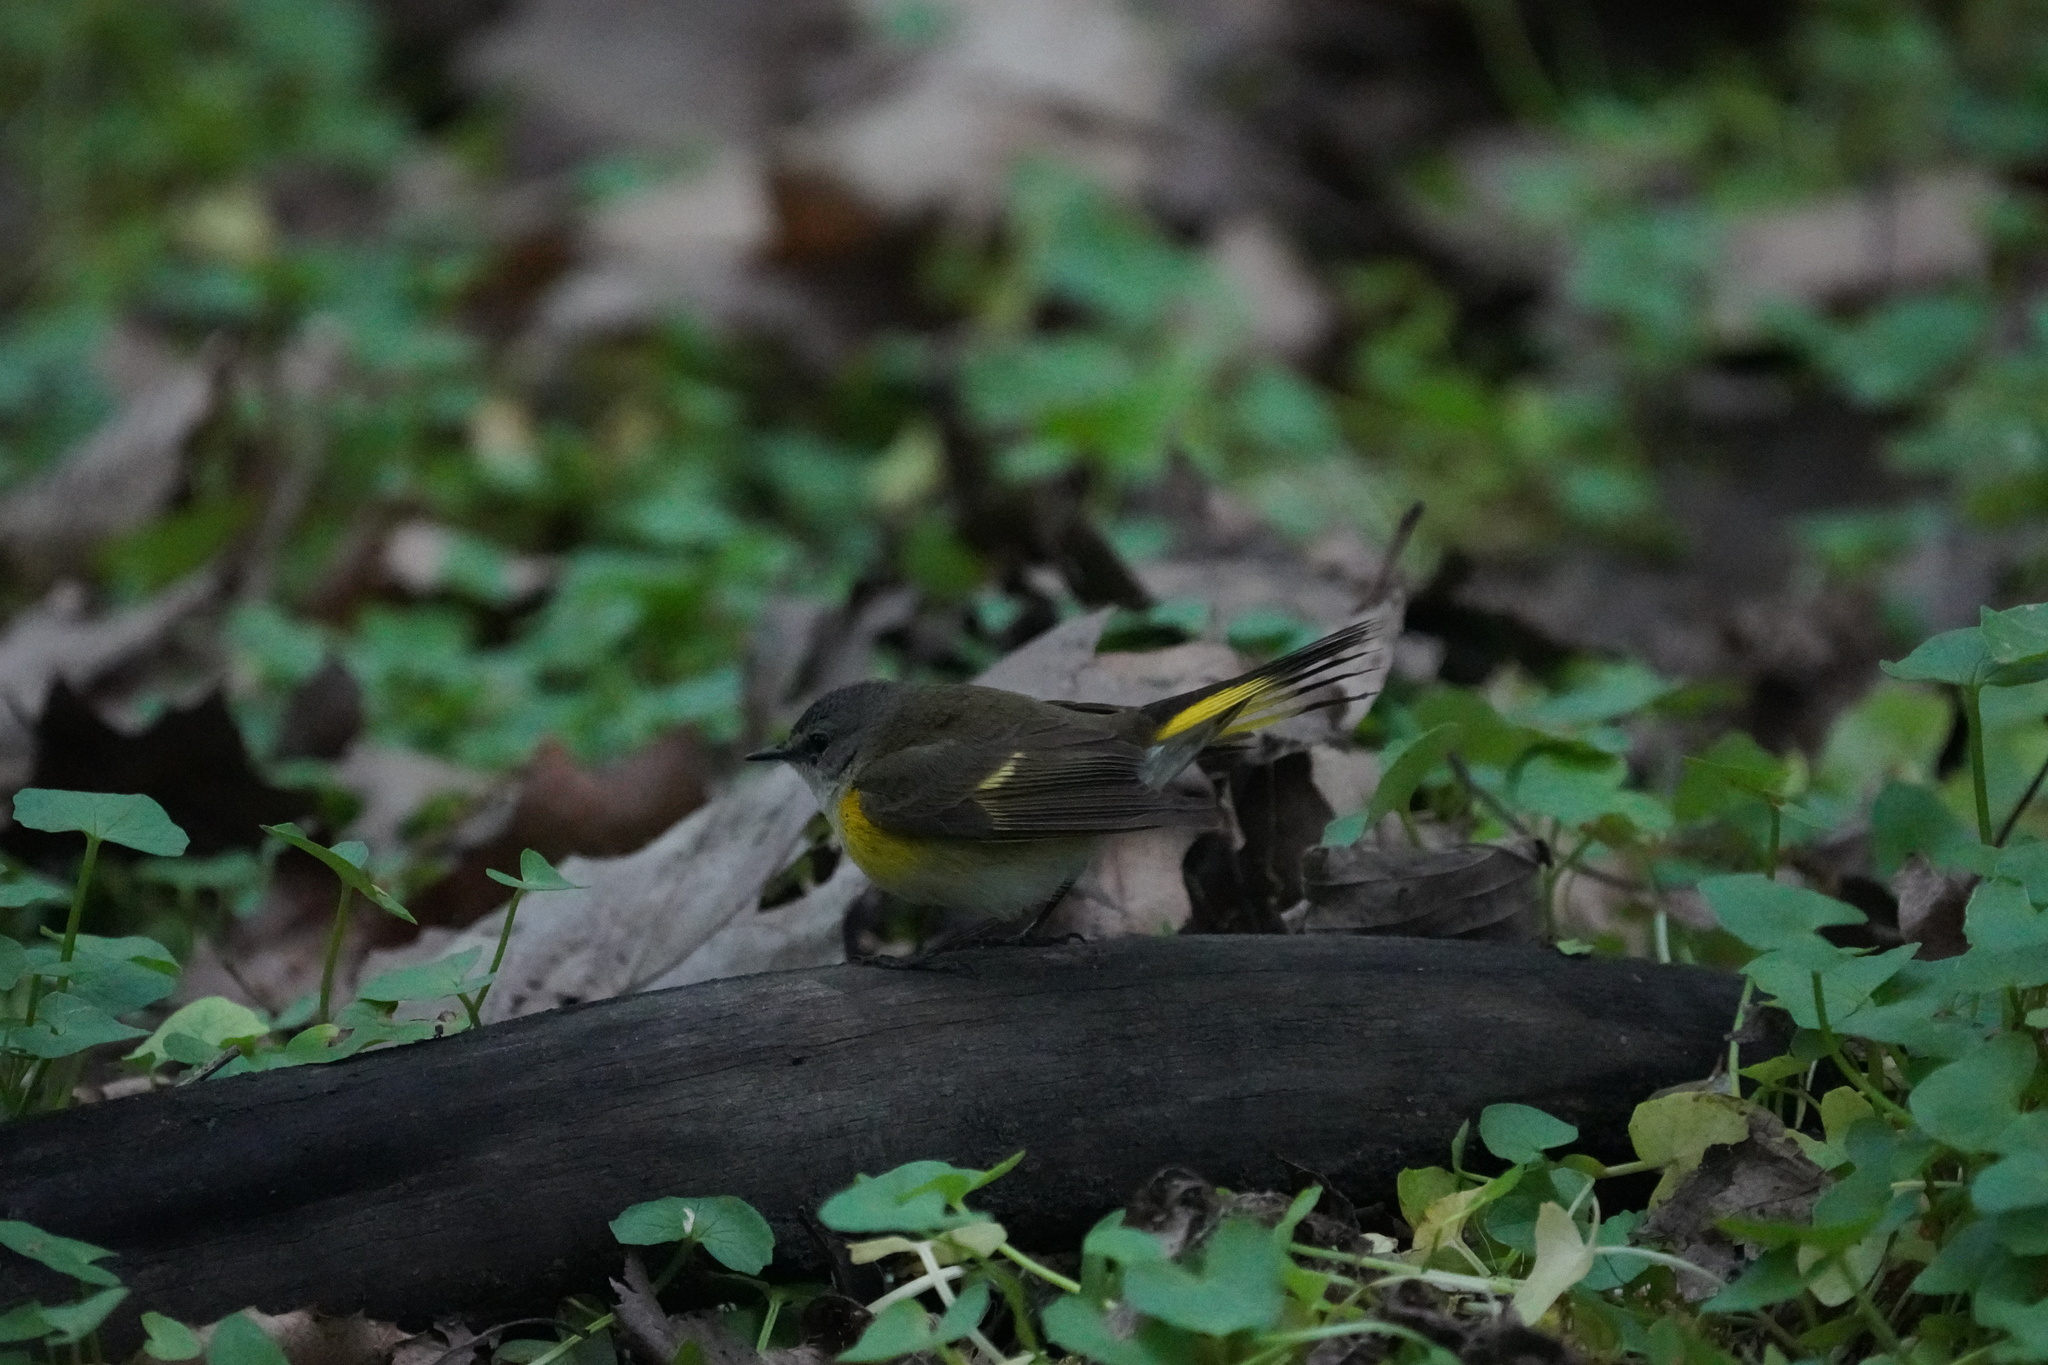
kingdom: Animalia
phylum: Chordata
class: Aves
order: Passeriformes
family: Parulidae
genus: Setophaga
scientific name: Setophaga ruticilla
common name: American redstart
